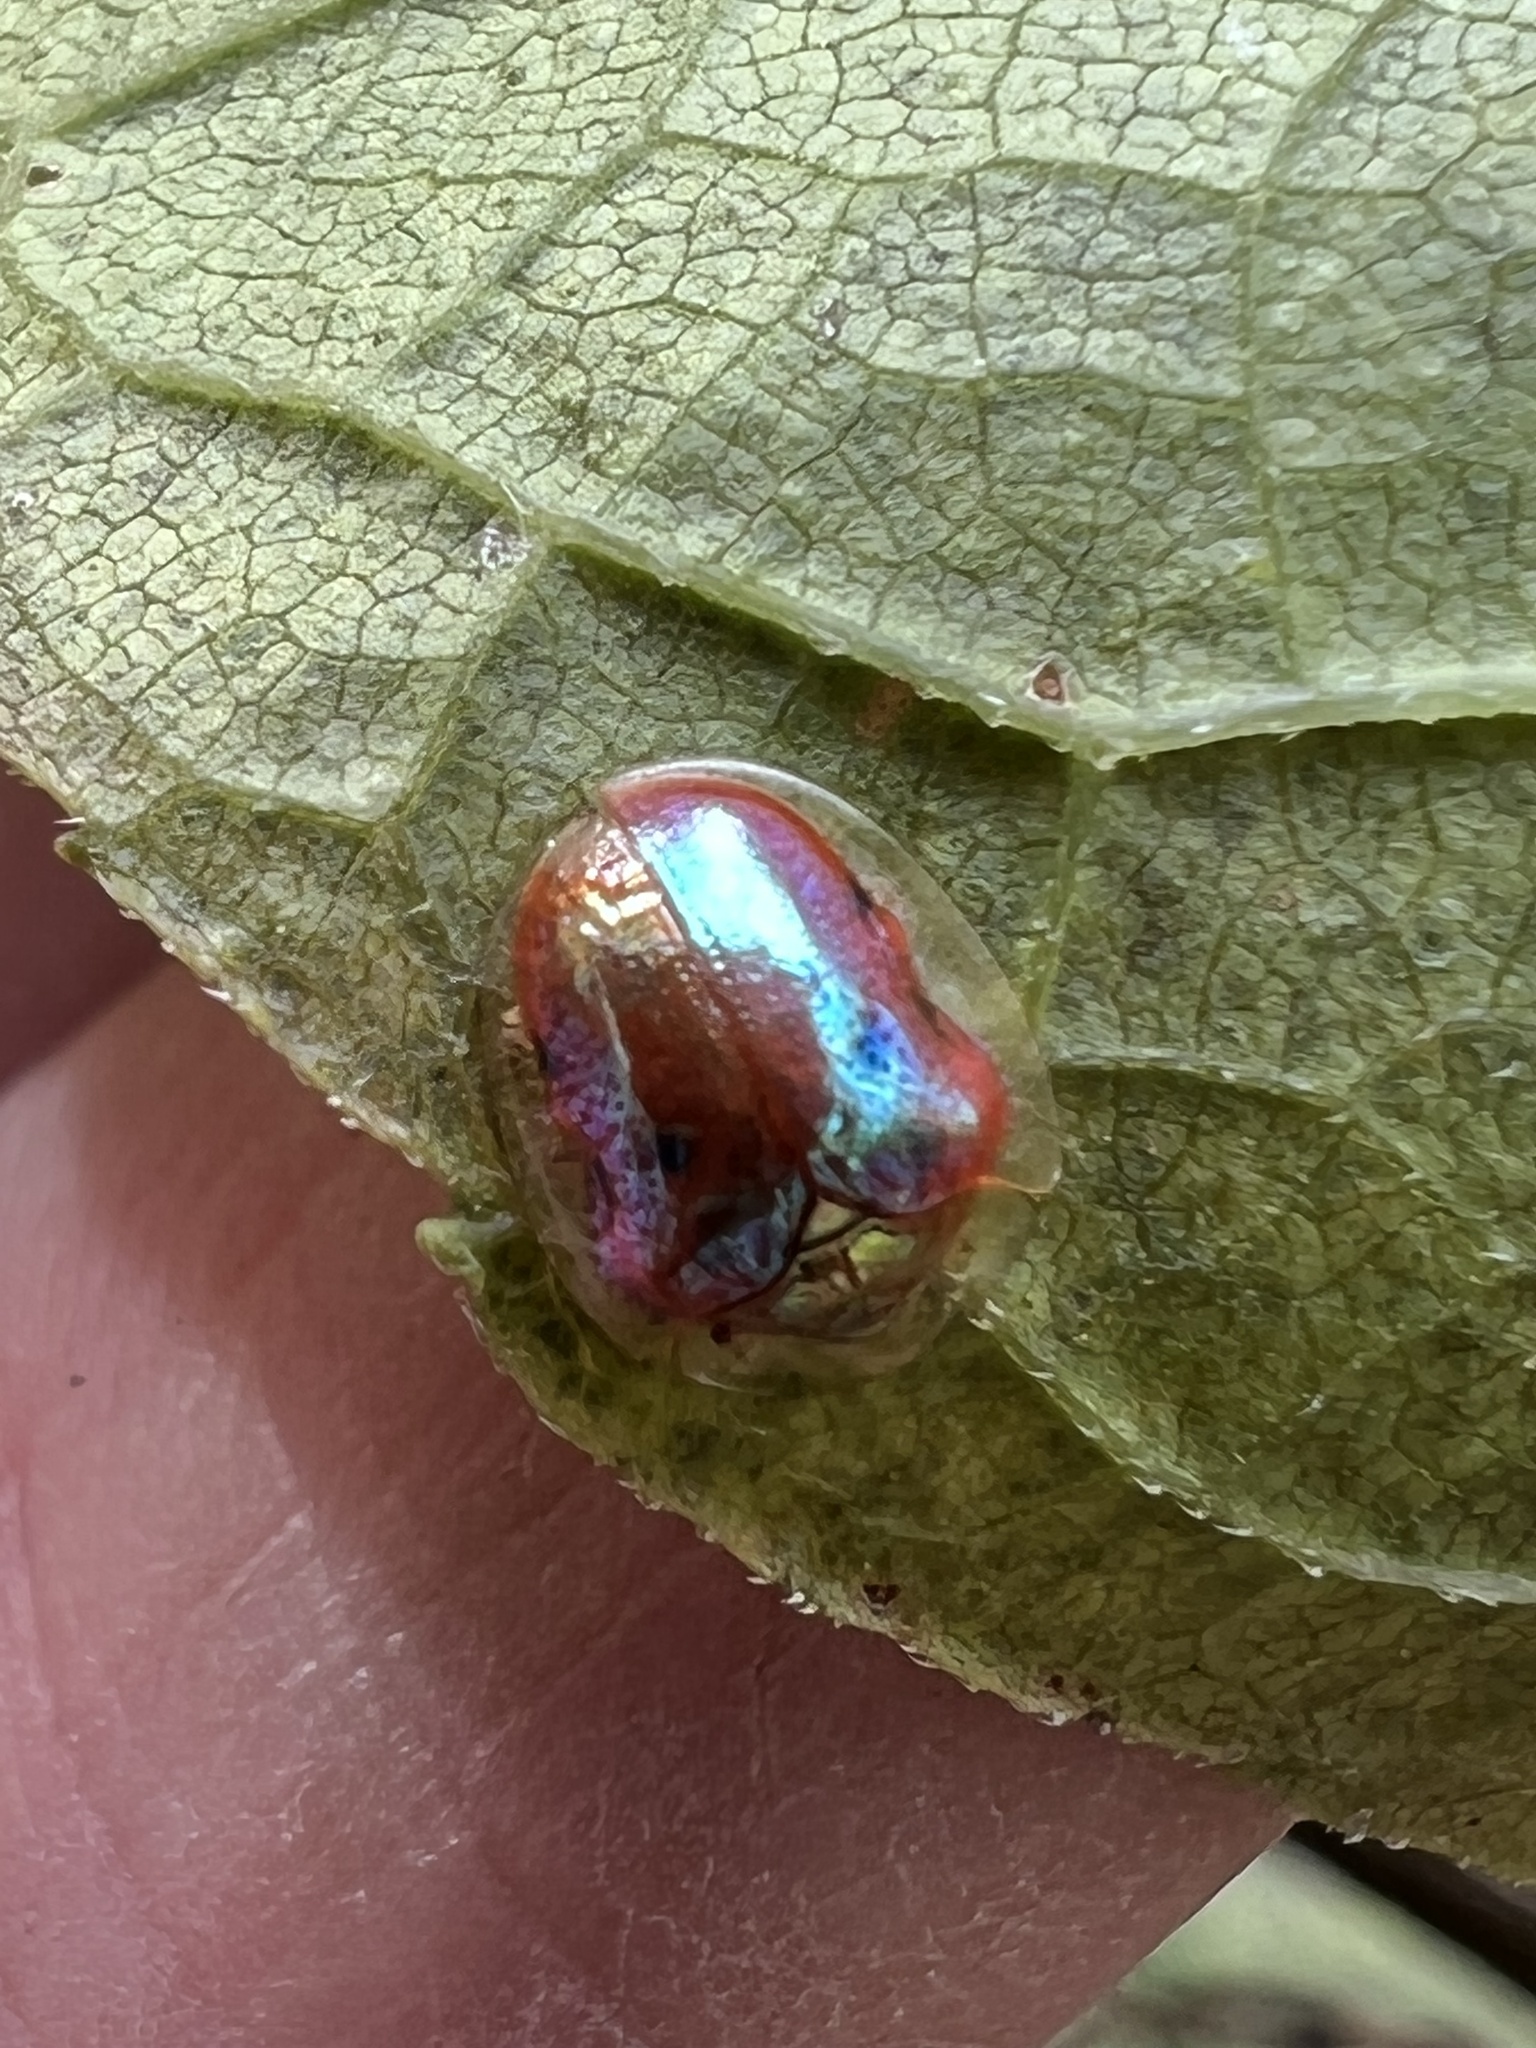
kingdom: Animalia
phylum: Arthropoda
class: Insecta
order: Coleoptera
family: Chrysomelidae
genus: Charidotella
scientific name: Charidotella sexpunctata
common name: Golden tortoise beetle
